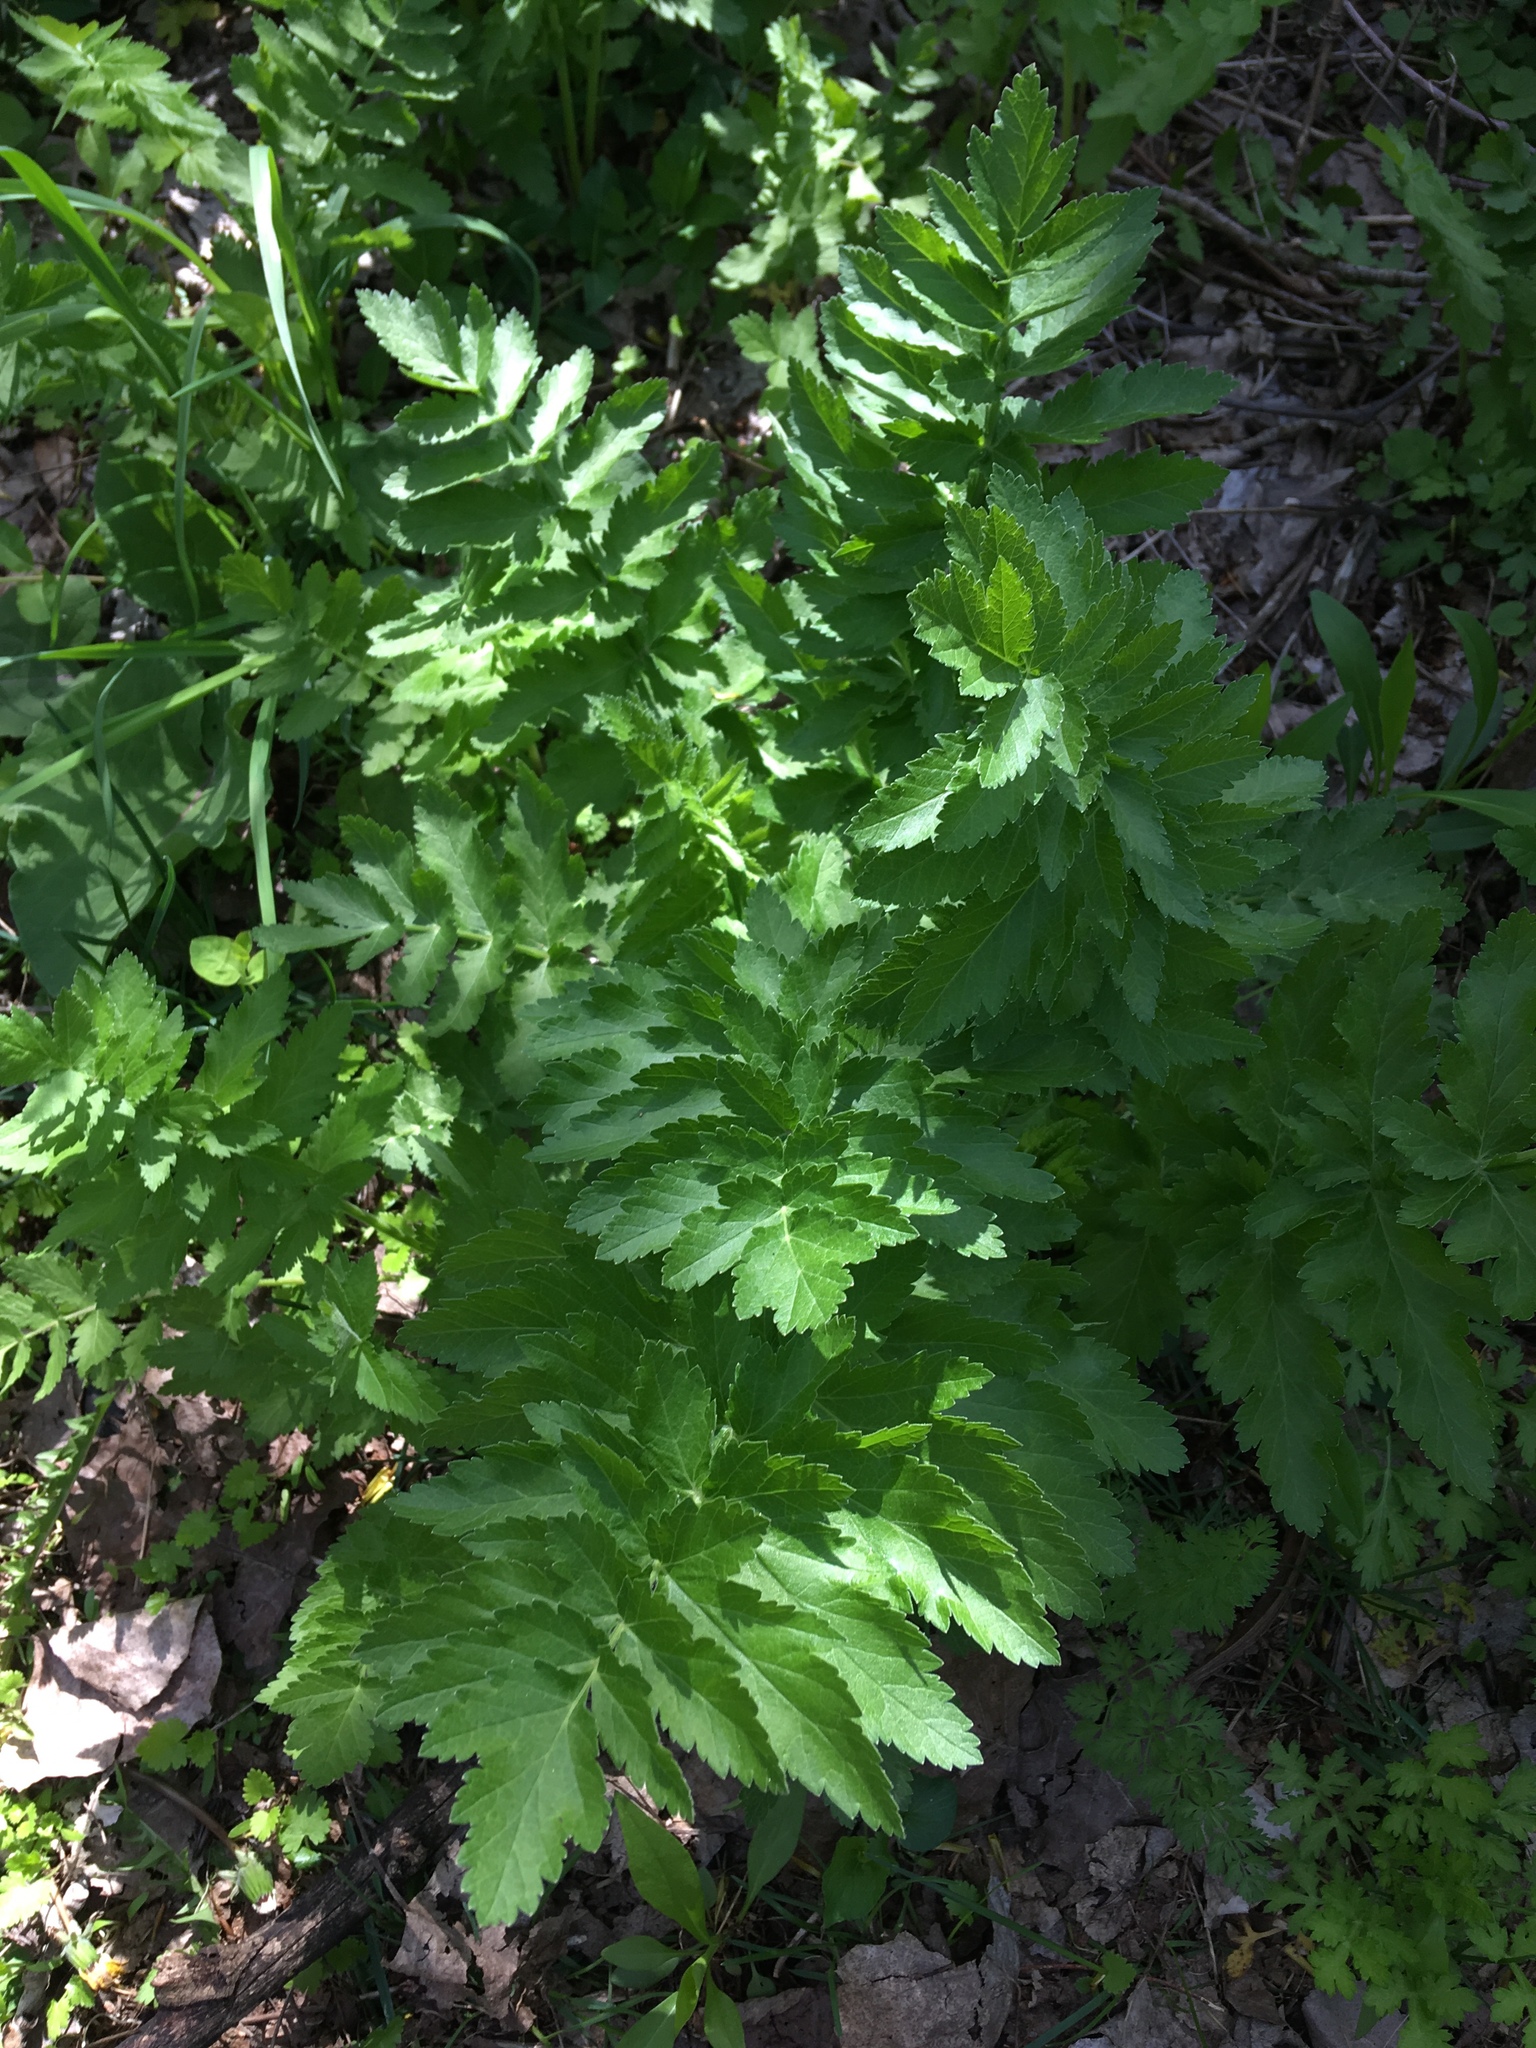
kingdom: Plantae
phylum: Tracheophyta
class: Magnoliopsida
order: Apiales
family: Apiaceae
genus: Pastinaca
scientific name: Pastinaca sativa
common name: Wild parsnip
